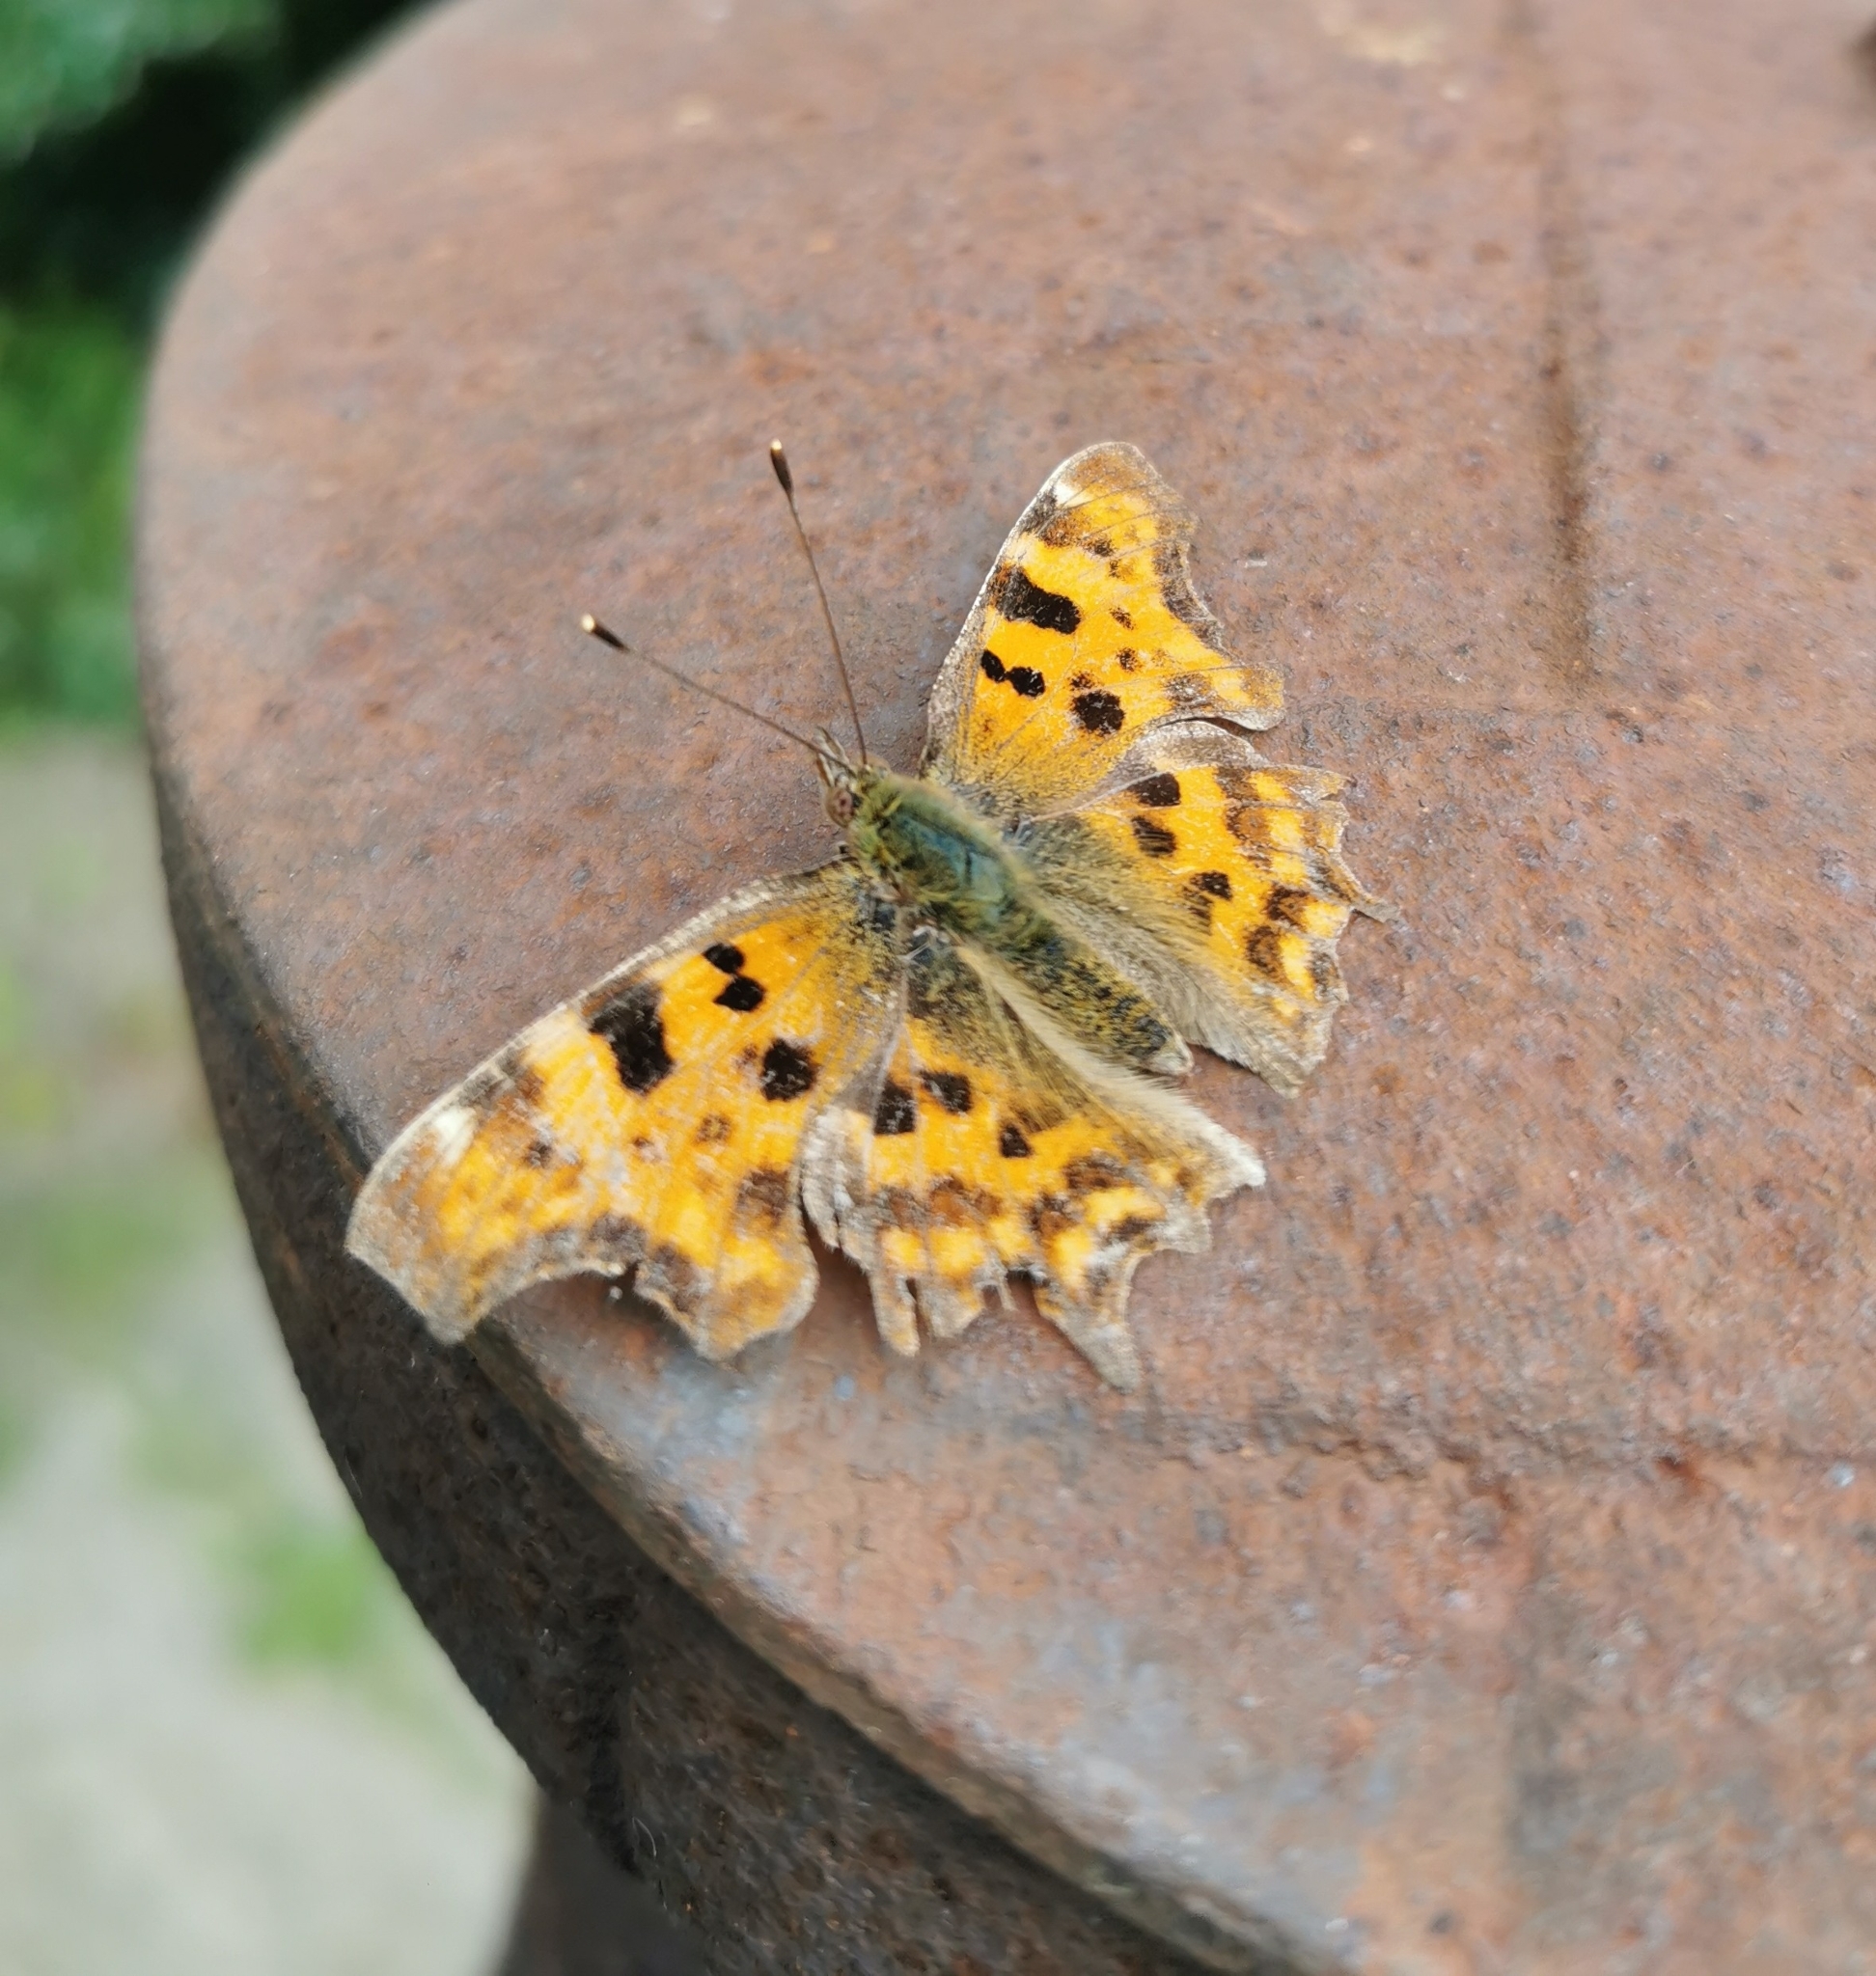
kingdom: Animalia
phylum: Arthropoda
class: Insecta
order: Lepidoptera
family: Nymphalidae
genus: Polygonia
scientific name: Polygonia c-album
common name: Comma
